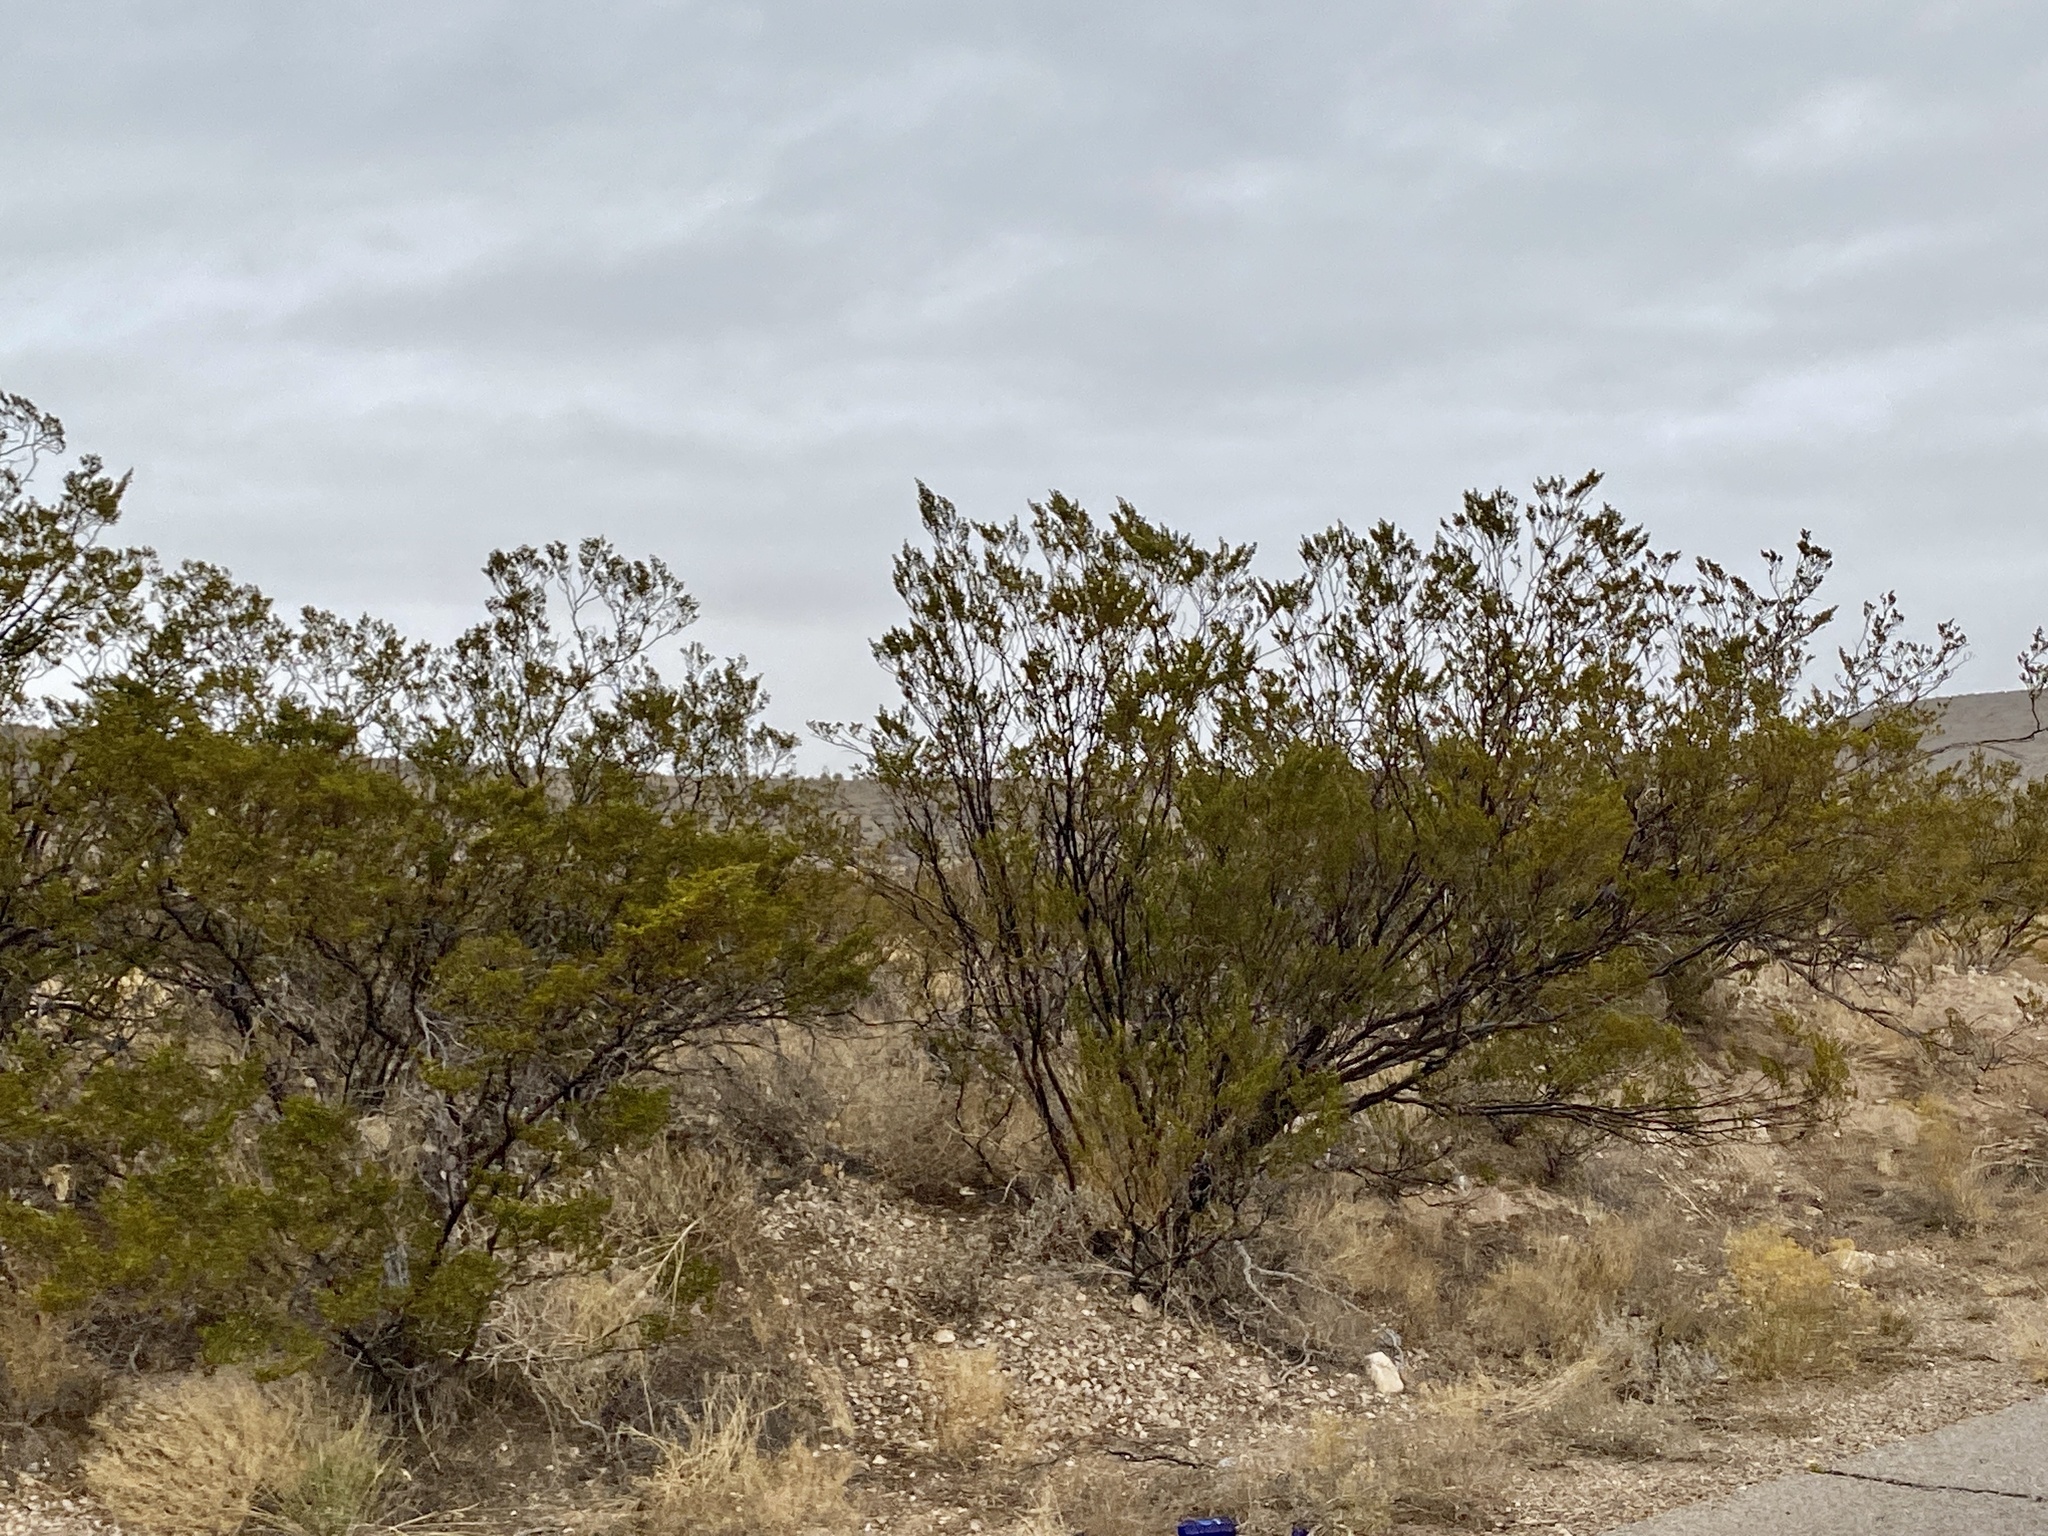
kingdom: Plantae
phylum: Tracheophyta
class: Magnoliopsida
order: Zygophyllales
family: Zygophyllaceae
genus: Larrea
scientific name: Larrea tridentata
